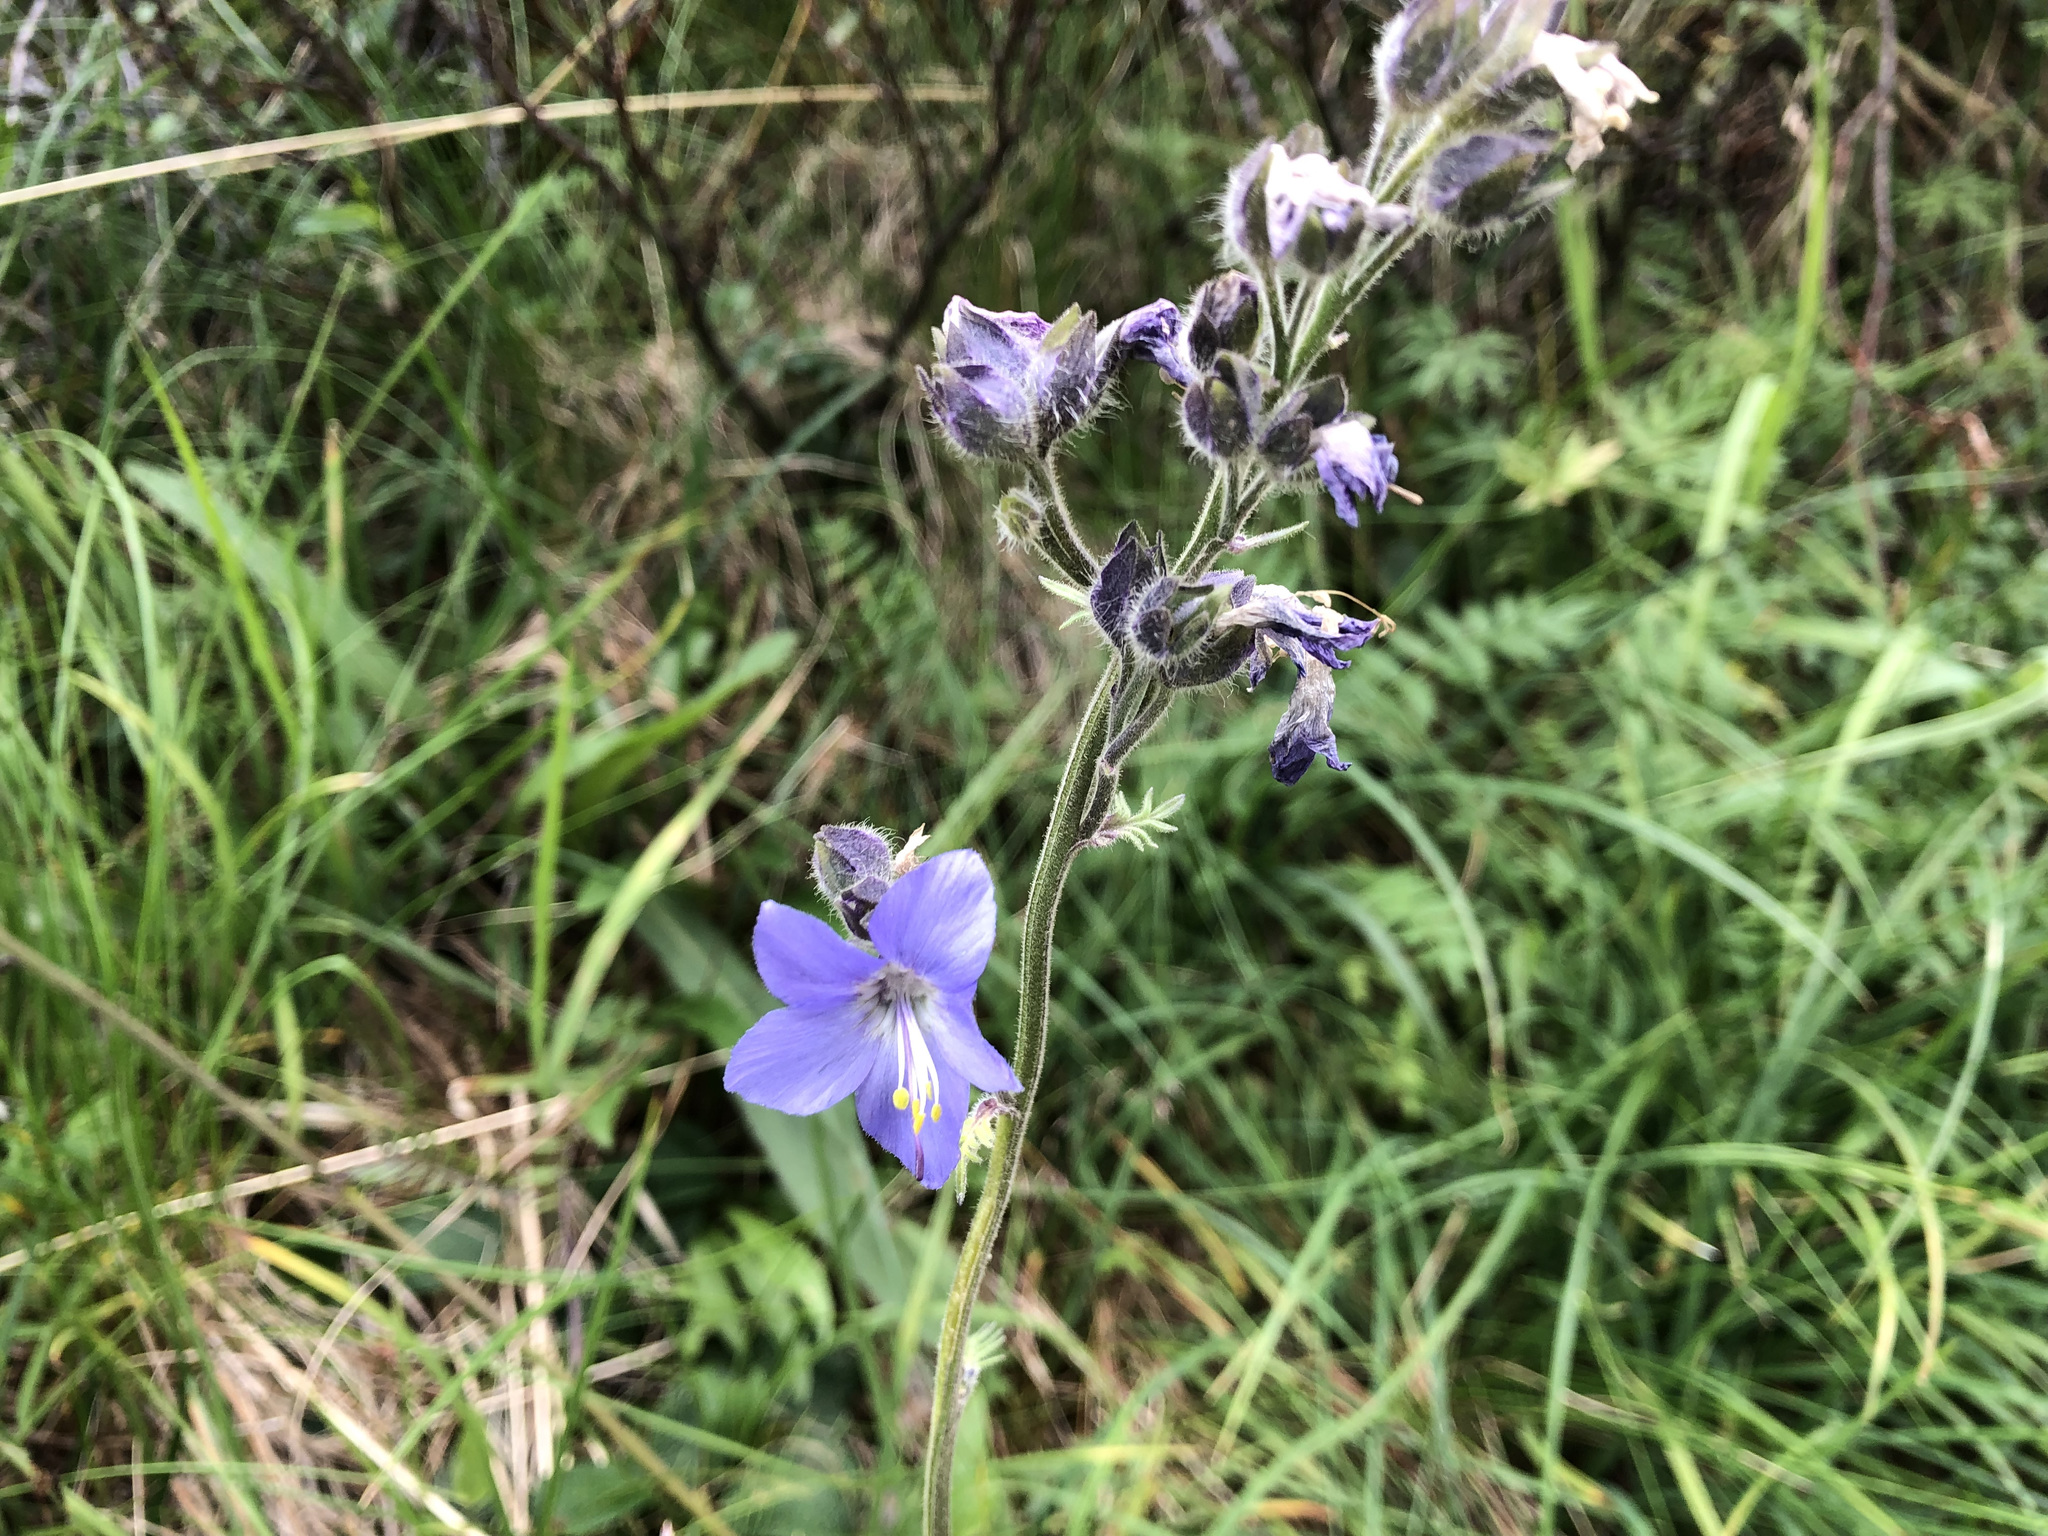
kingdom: Plantae
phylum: Tracheophyta
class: Magnoliopsida
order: Ericales
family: Polemoniaceae
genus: Polemonium
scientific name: Polemonium acutiflorum
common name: Tall jacob's-ladder
